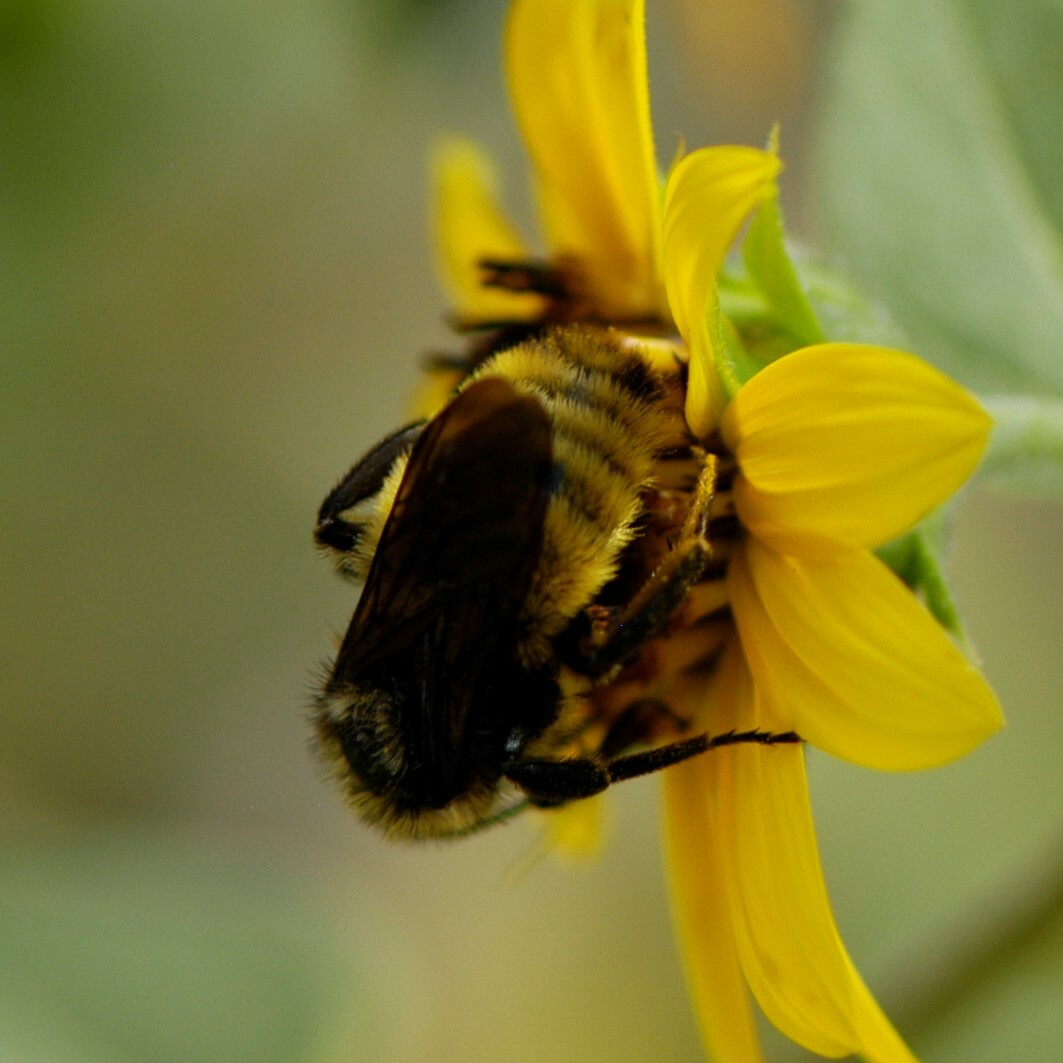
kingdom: Animalia
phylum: Arthropoda
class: Insecta
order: Hymenoptera
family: Apidae
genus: Bombus
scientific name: Bombus pensylvanicus
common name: Bumble bee
